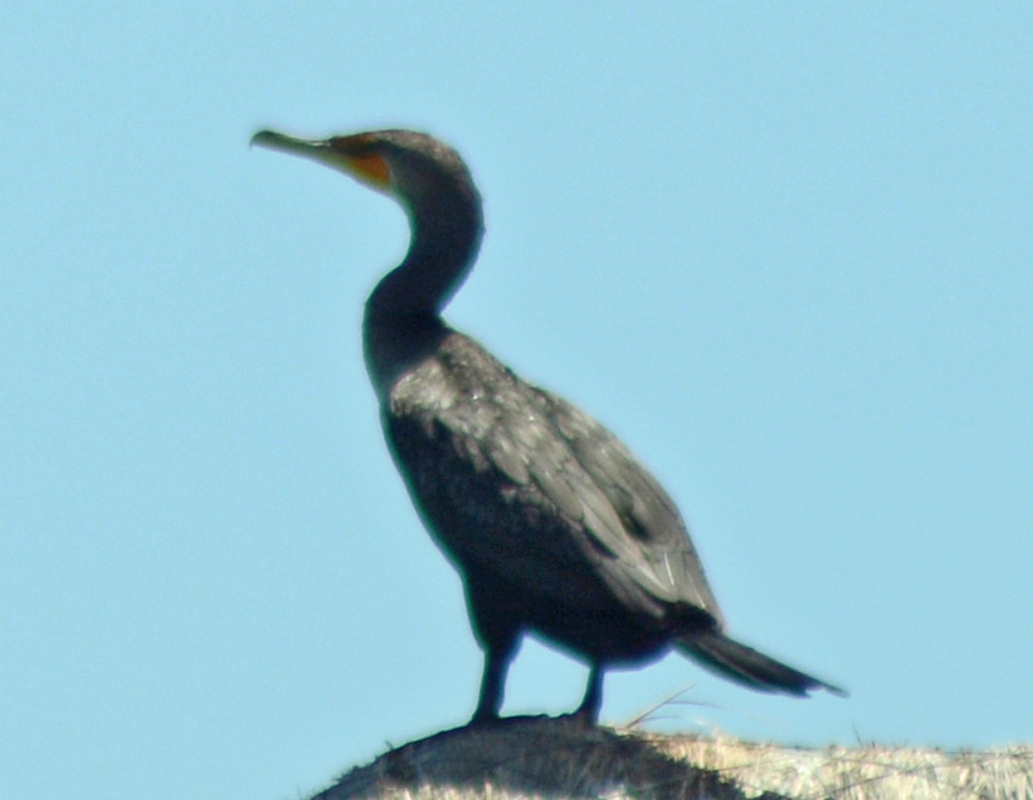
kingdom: Animalia
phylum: Chordata
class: Aves
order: Suliformes
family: Phalacrocoracidae
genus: Phalacrocorax
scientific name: Phalacrocorax brasilianus
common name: Neotropic cormorant
